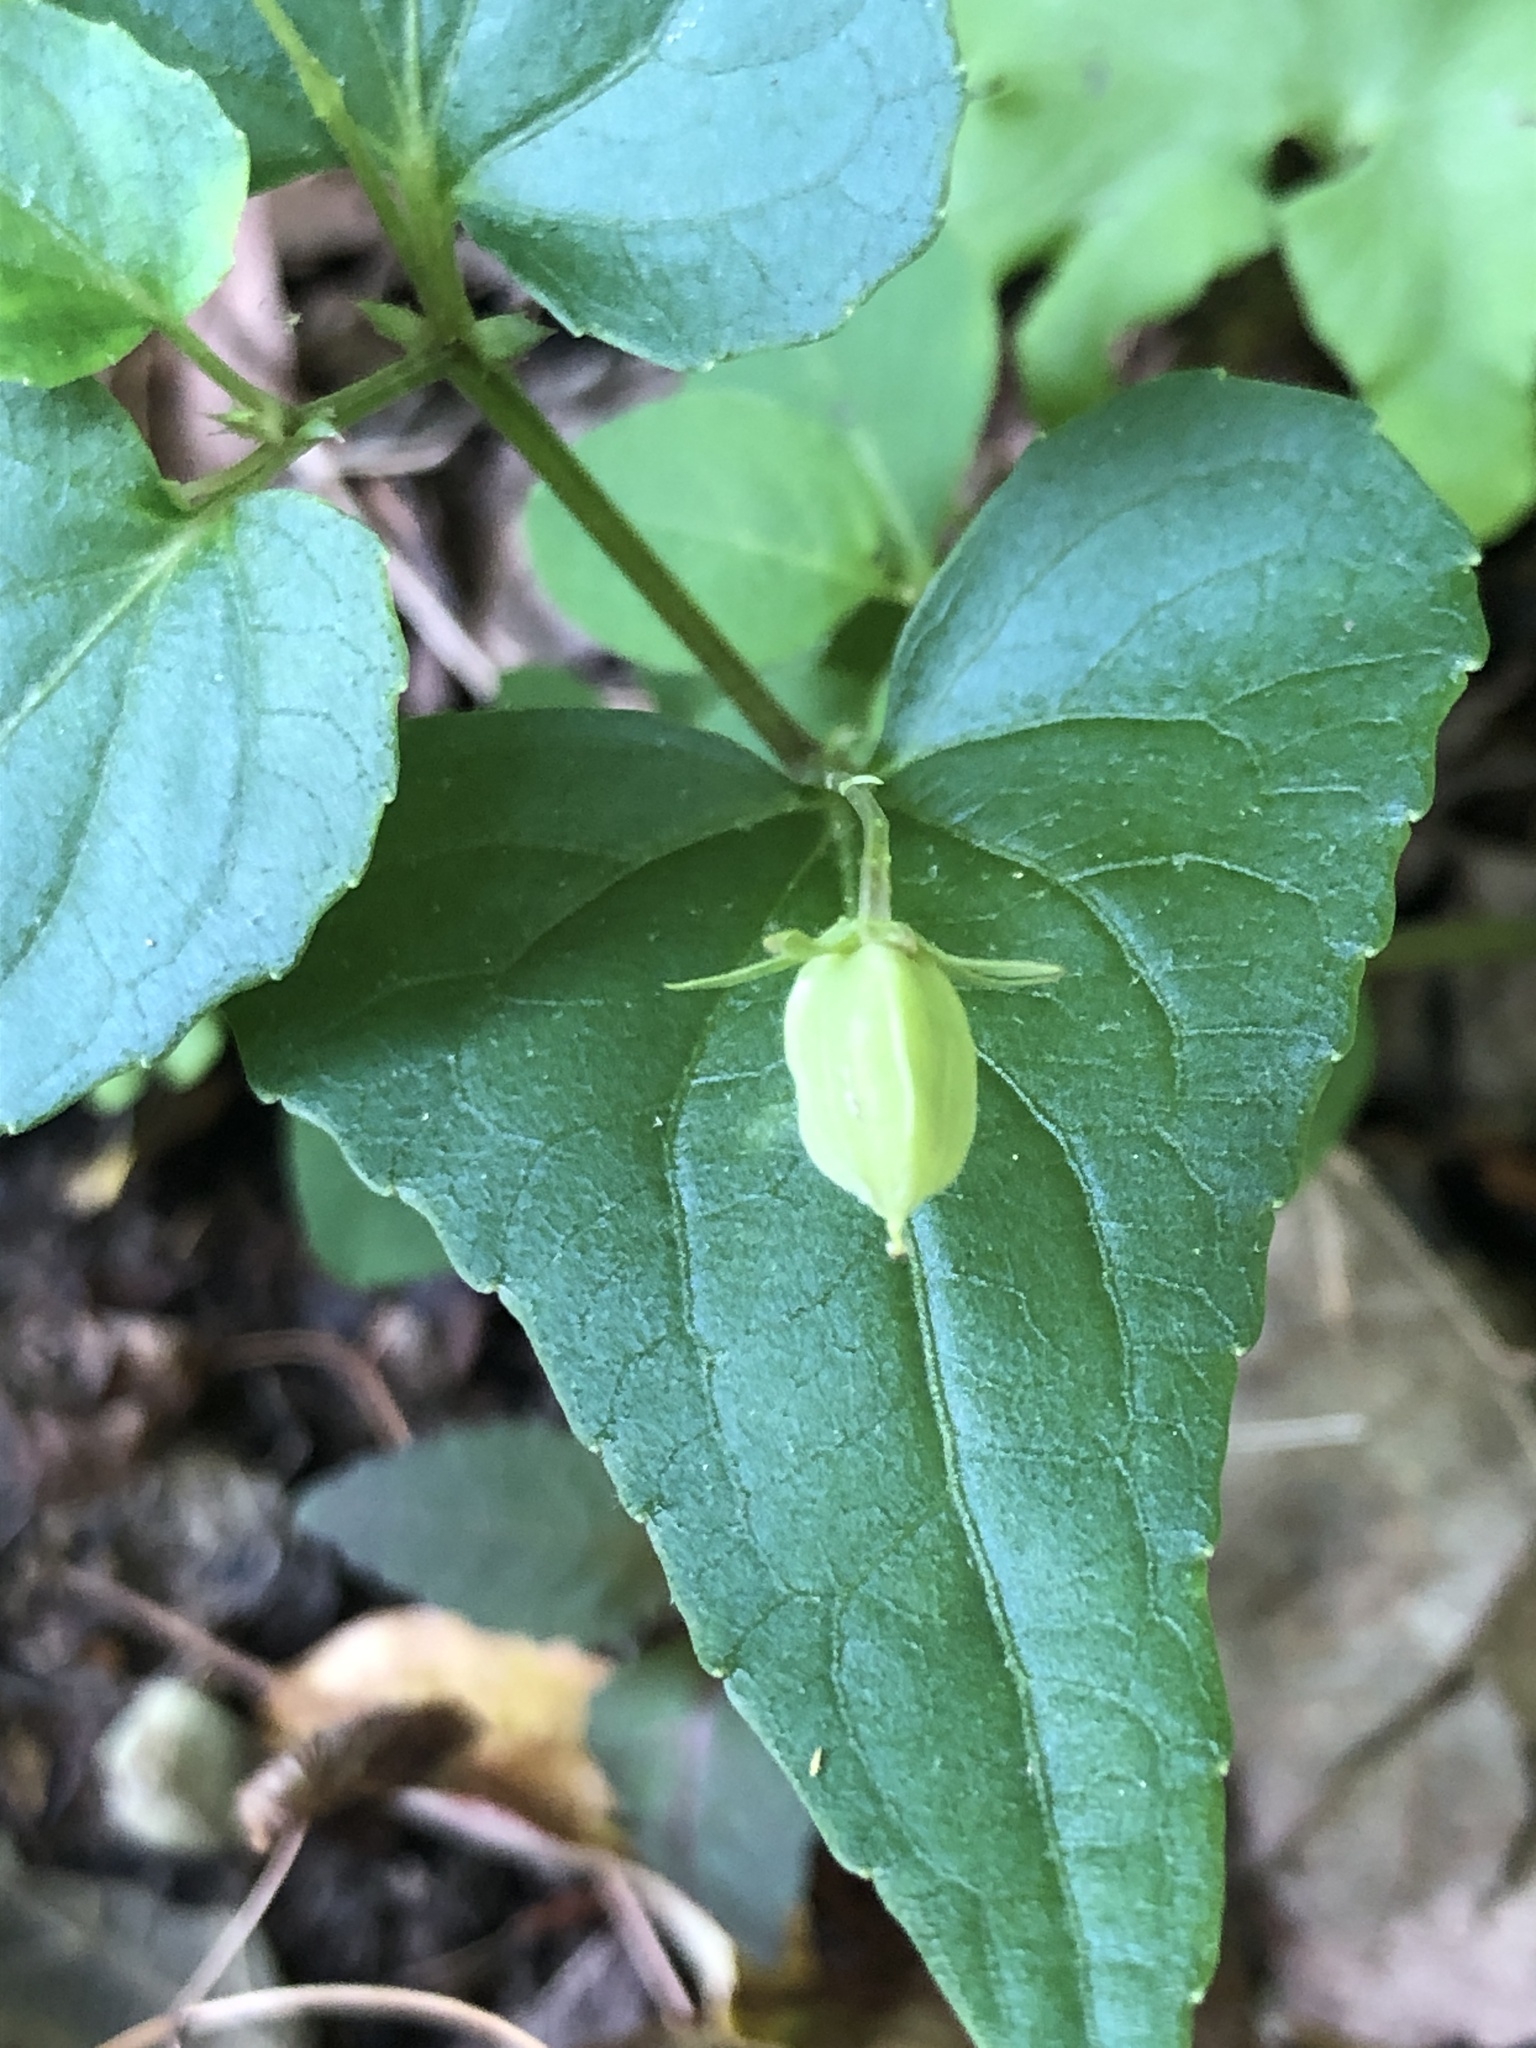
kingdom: Plantae
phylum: Tracheophyta
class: Magnoliopsida
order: Malpighiales
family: Violaceae
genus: Viola
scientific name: Viola hastata
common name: Spear-leaf violet
